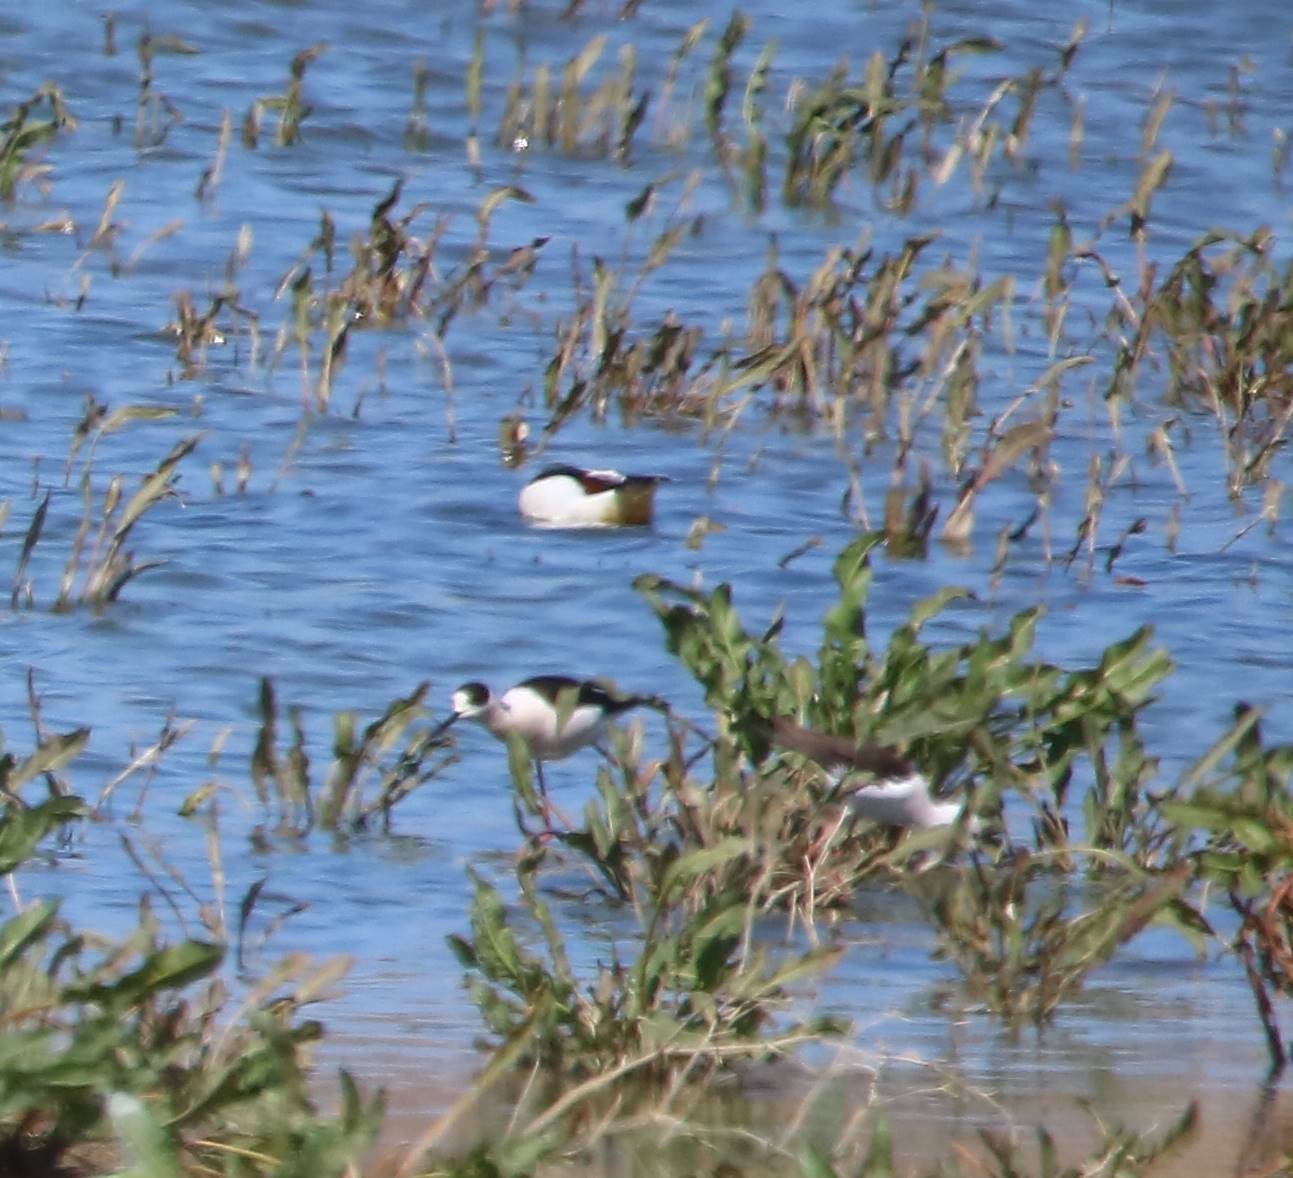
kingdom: Animalia
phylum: Chordata
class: Aves
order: Charadriiformes
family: Recurvirostridae
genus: Himantopus
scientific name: Himantopus himantopus
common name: Black-winged stilt
